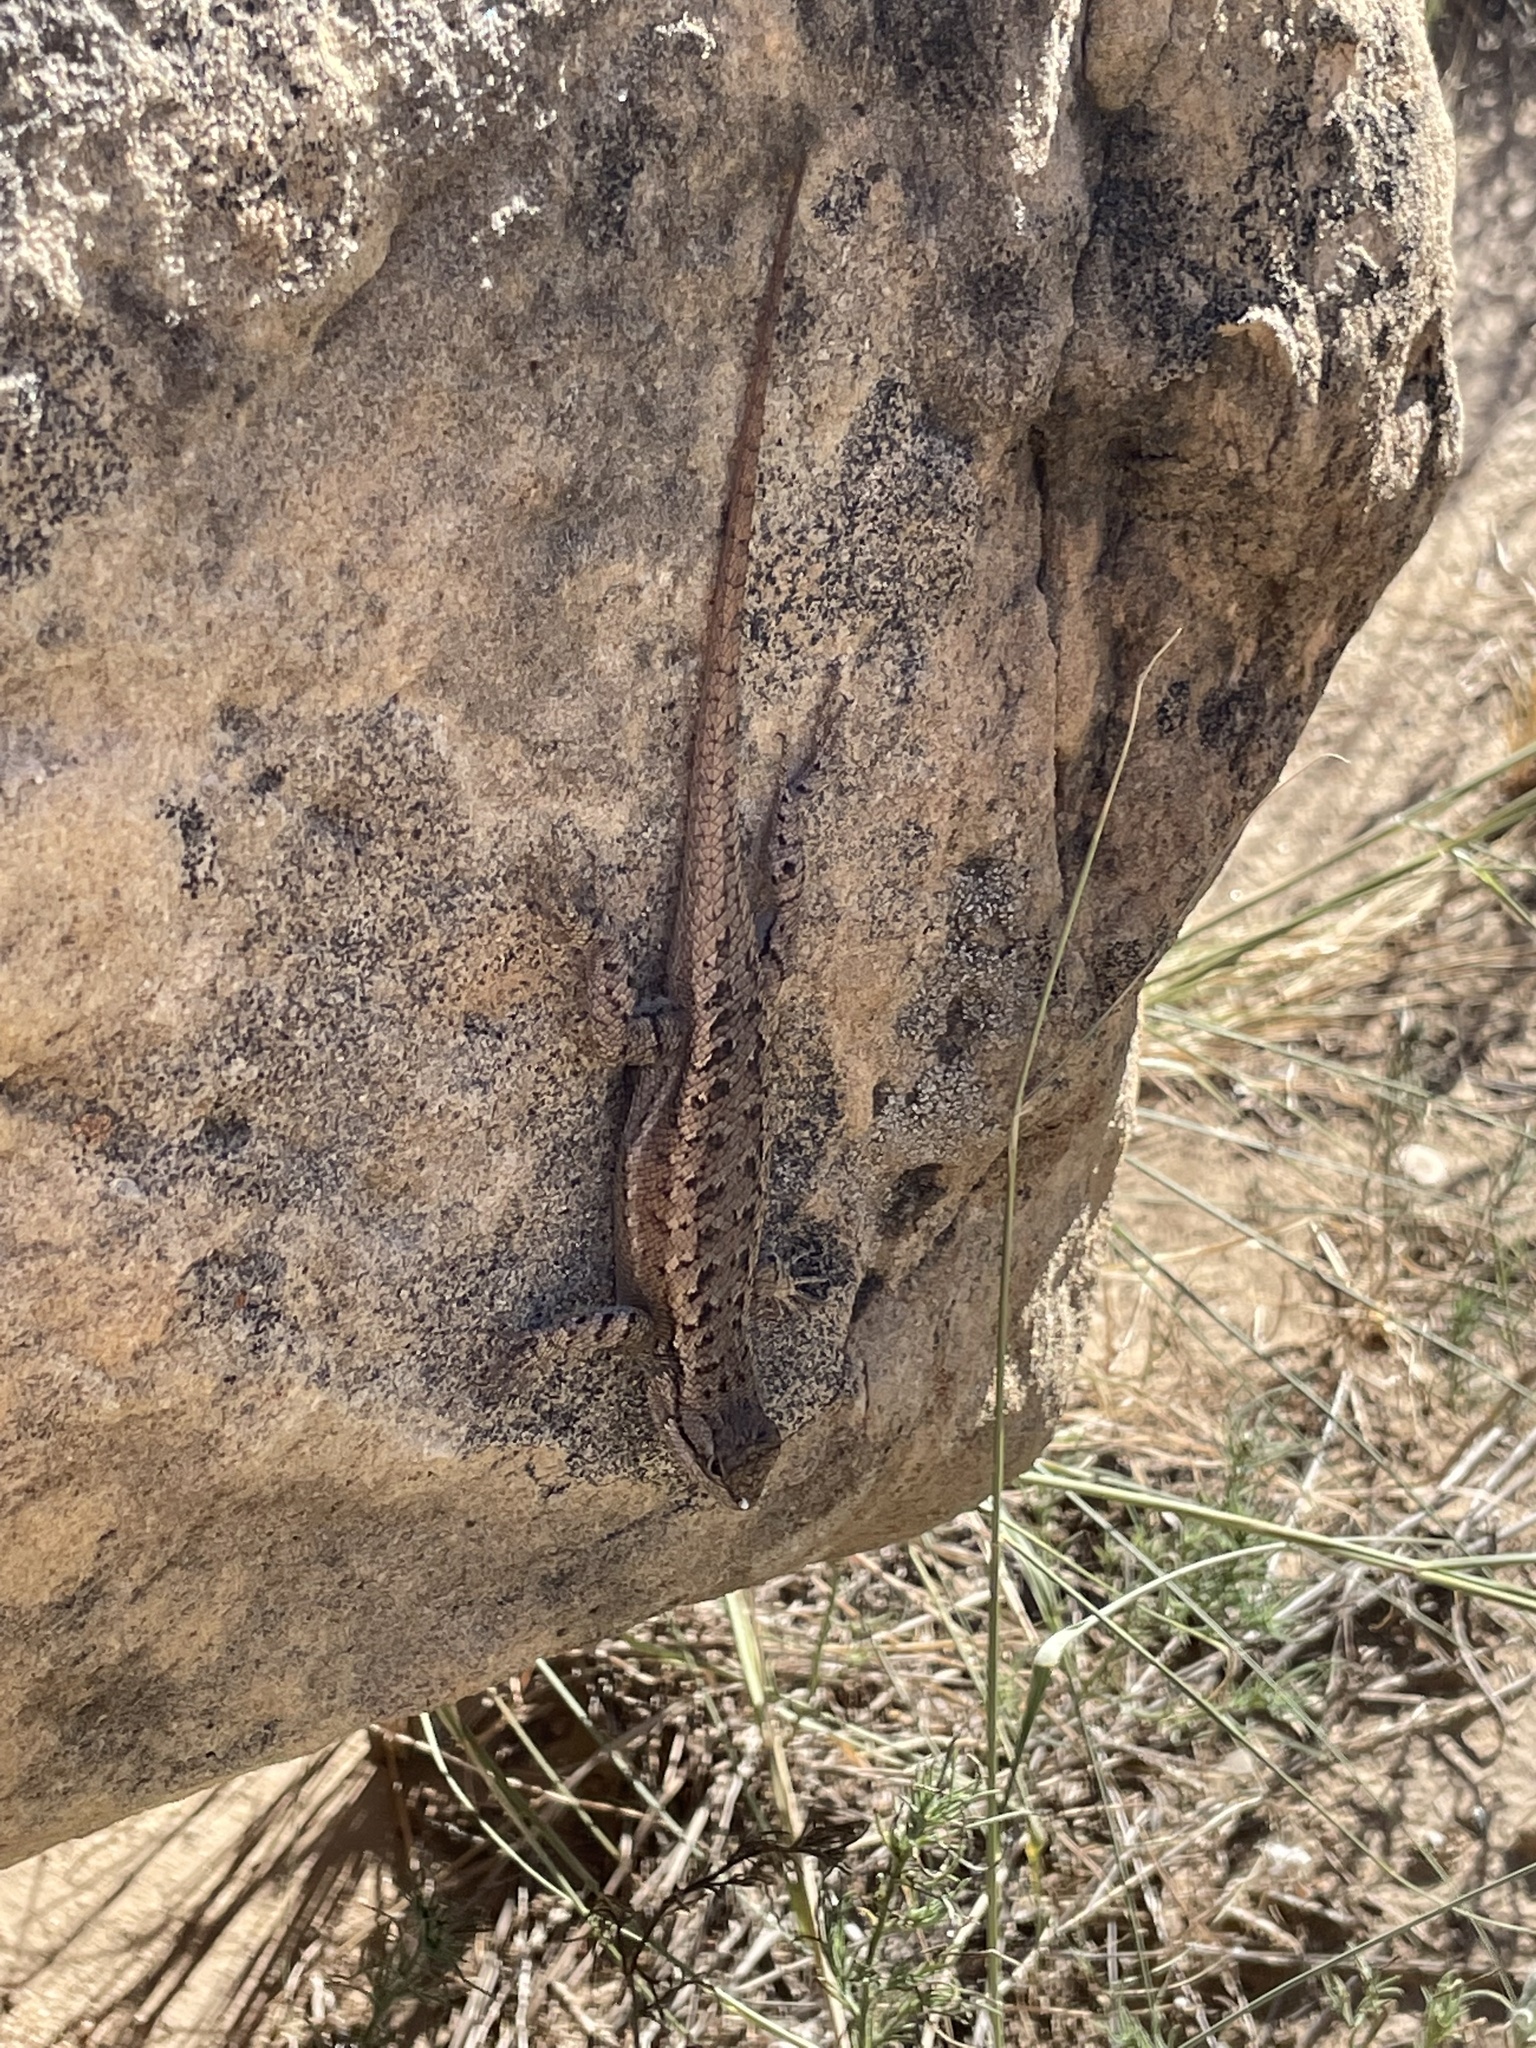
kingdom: Animalia
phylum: Chordata
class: Squamata
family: Phrynosomatidae
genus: Sceloporus
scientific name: Sceloporus consobrinus
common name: Southern prairie lizard
